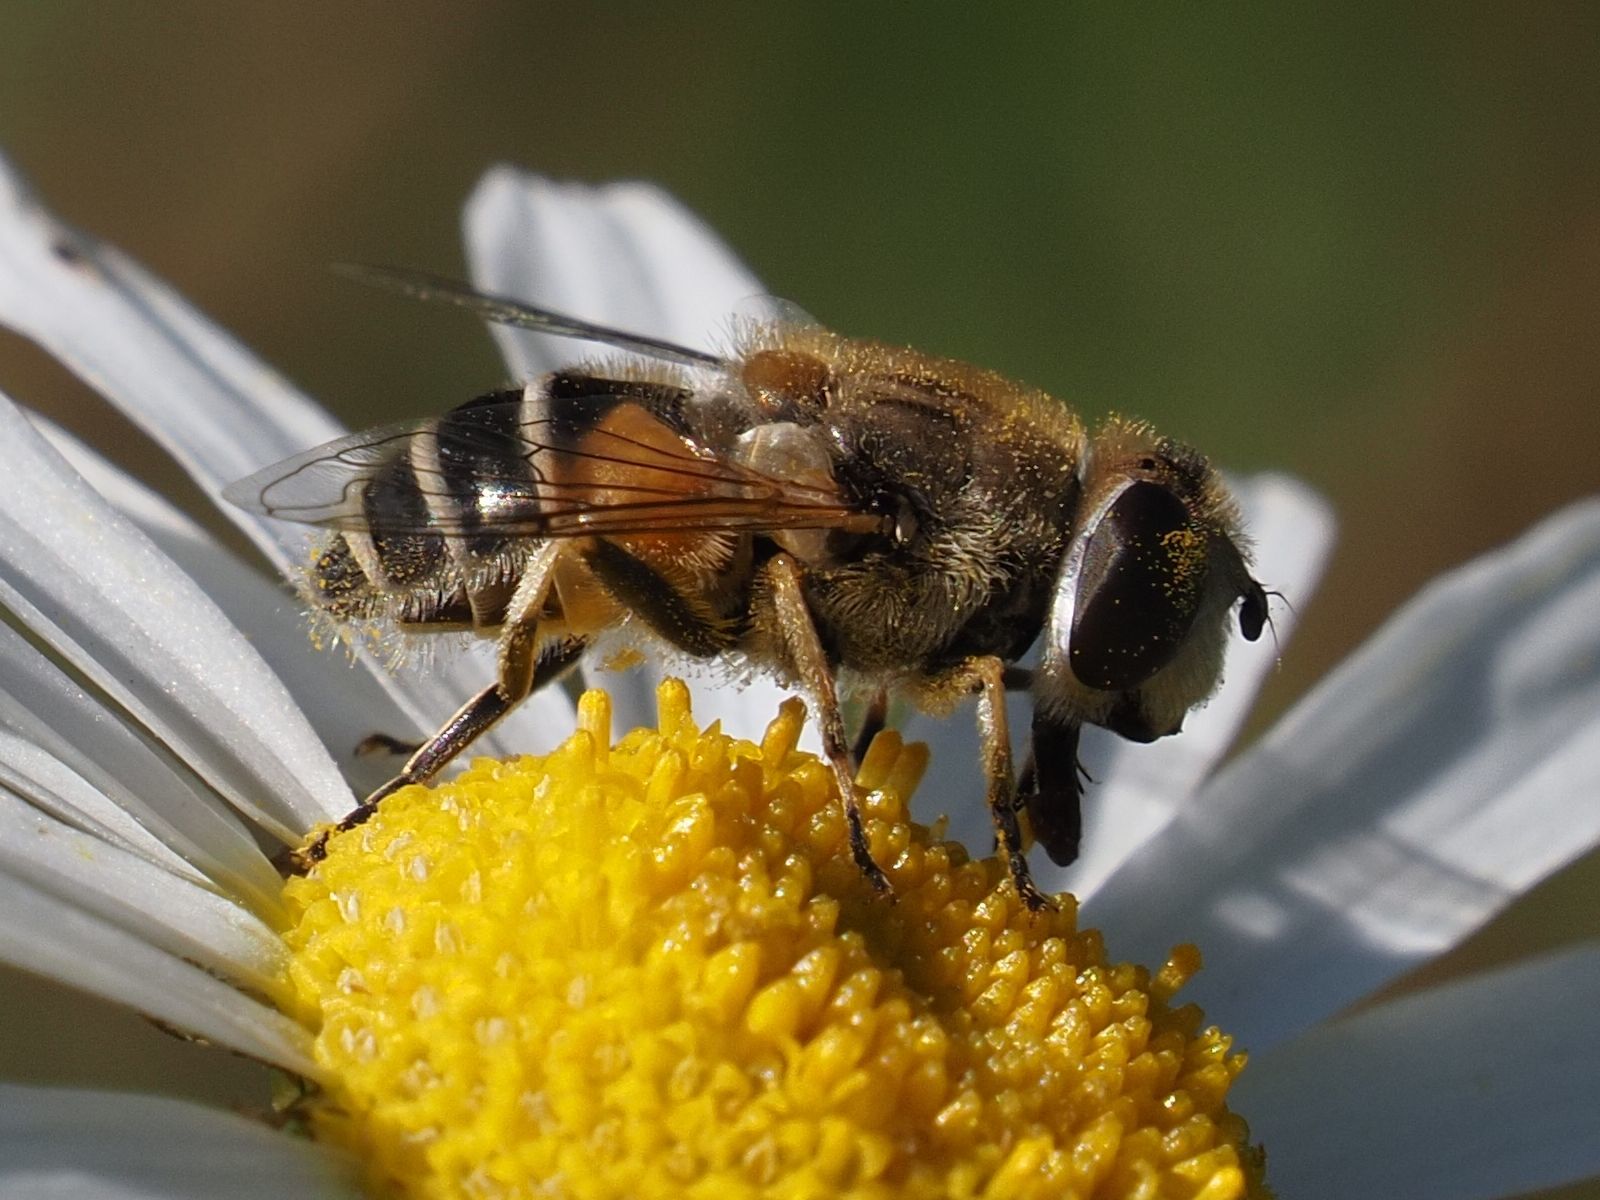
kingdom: Animalia
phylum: Arthropoda
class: Insecta
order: Diptera
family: Syrphidae
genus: Eristalis
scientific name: Eristalis arbustorum
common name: Hover fly
